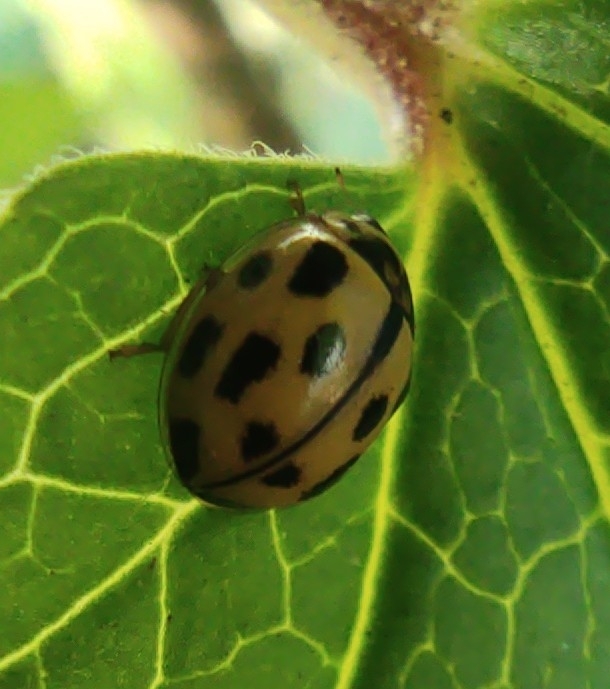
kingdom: Animalia
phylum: Arthropoda
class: Insecta
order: Coleoptera
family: Coccinellidae
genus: Propylaea
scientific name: Propylaea quatuordecimpunctata
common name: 14-spotted ladybird beetle
